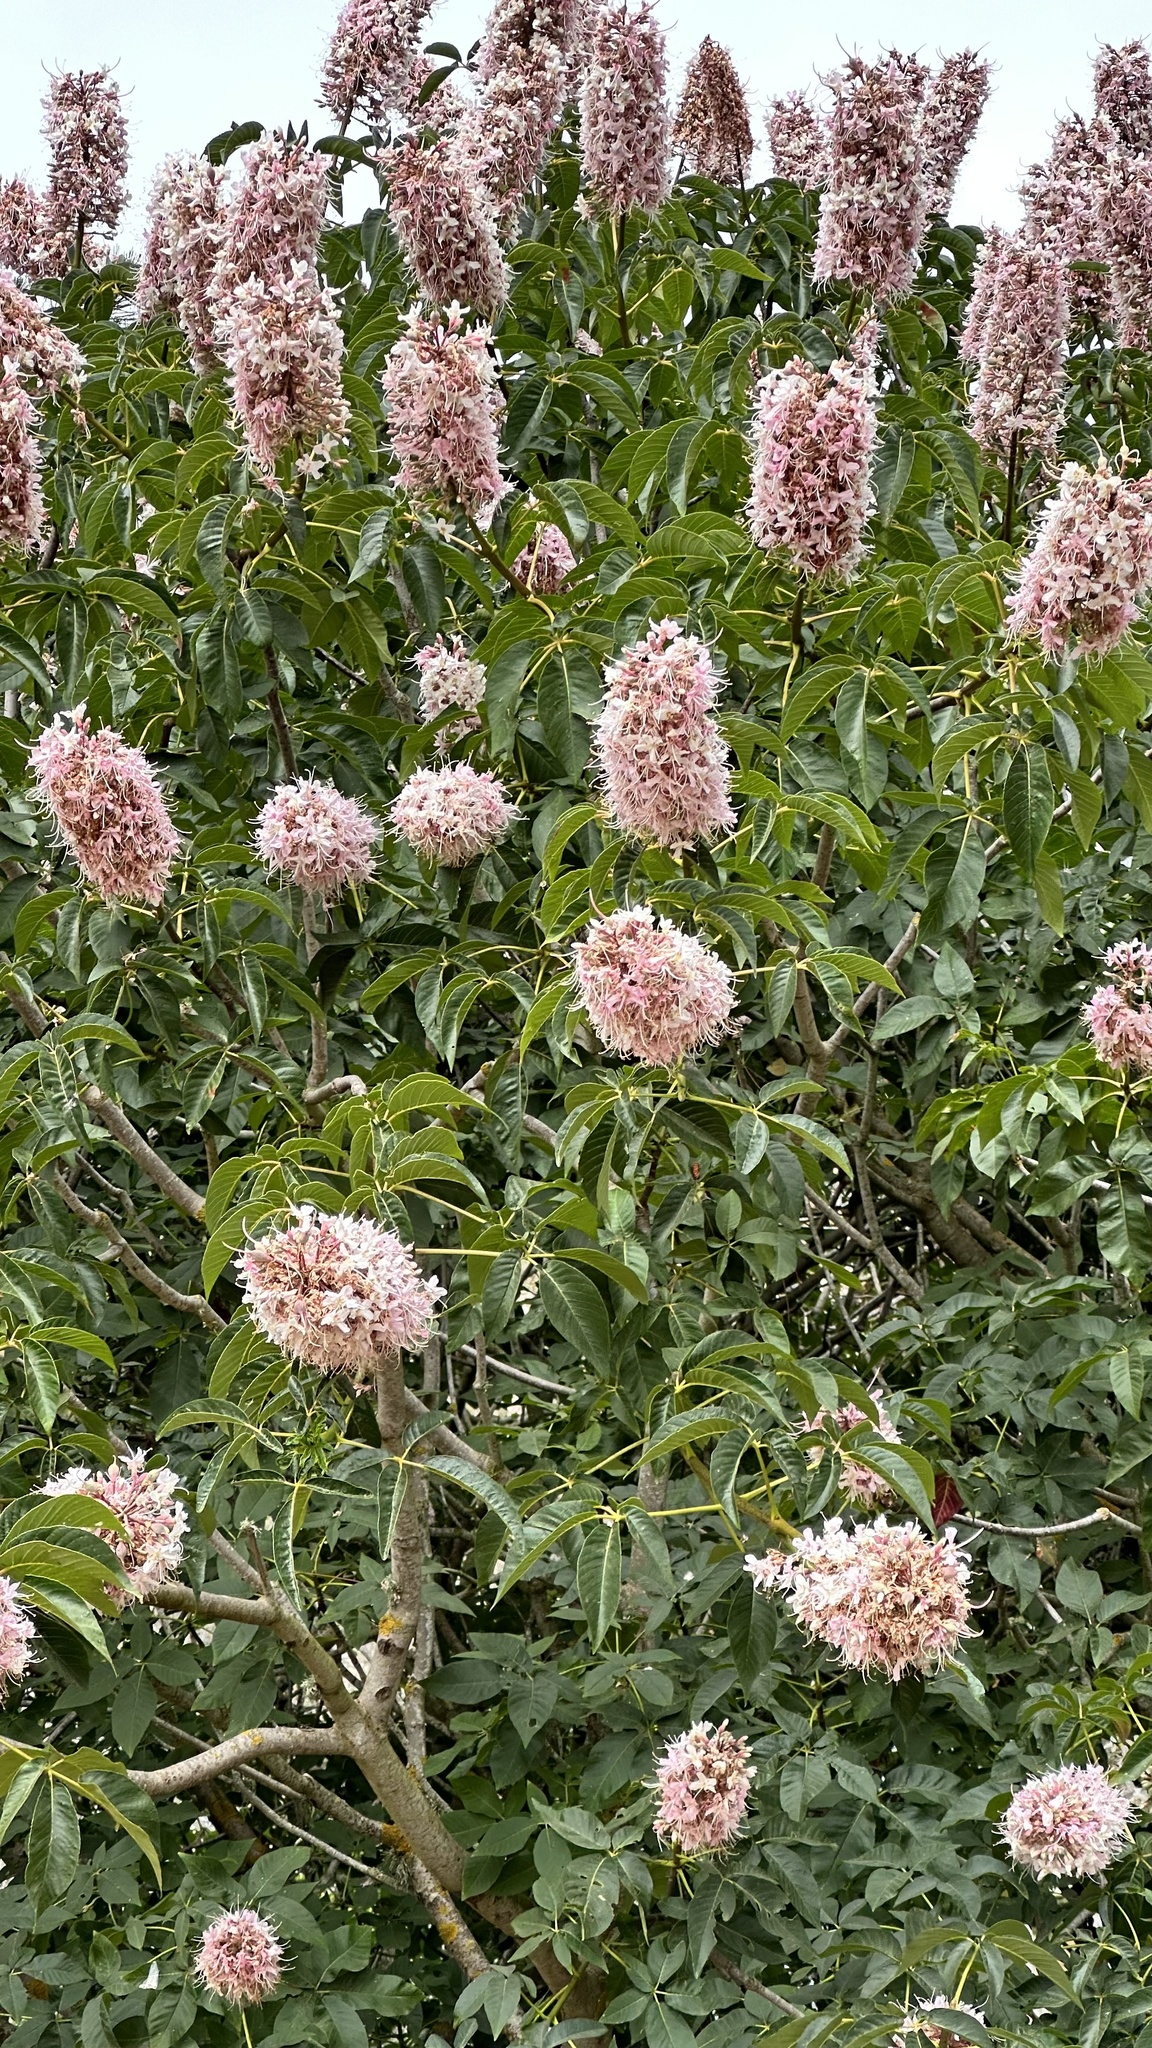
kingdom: Plantae
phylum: Tracheophyta
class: Magnoliopsida
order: Sapindales
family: Sapindaceae
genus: Aesculus
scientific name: Aesculus californica
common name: California buckeye
